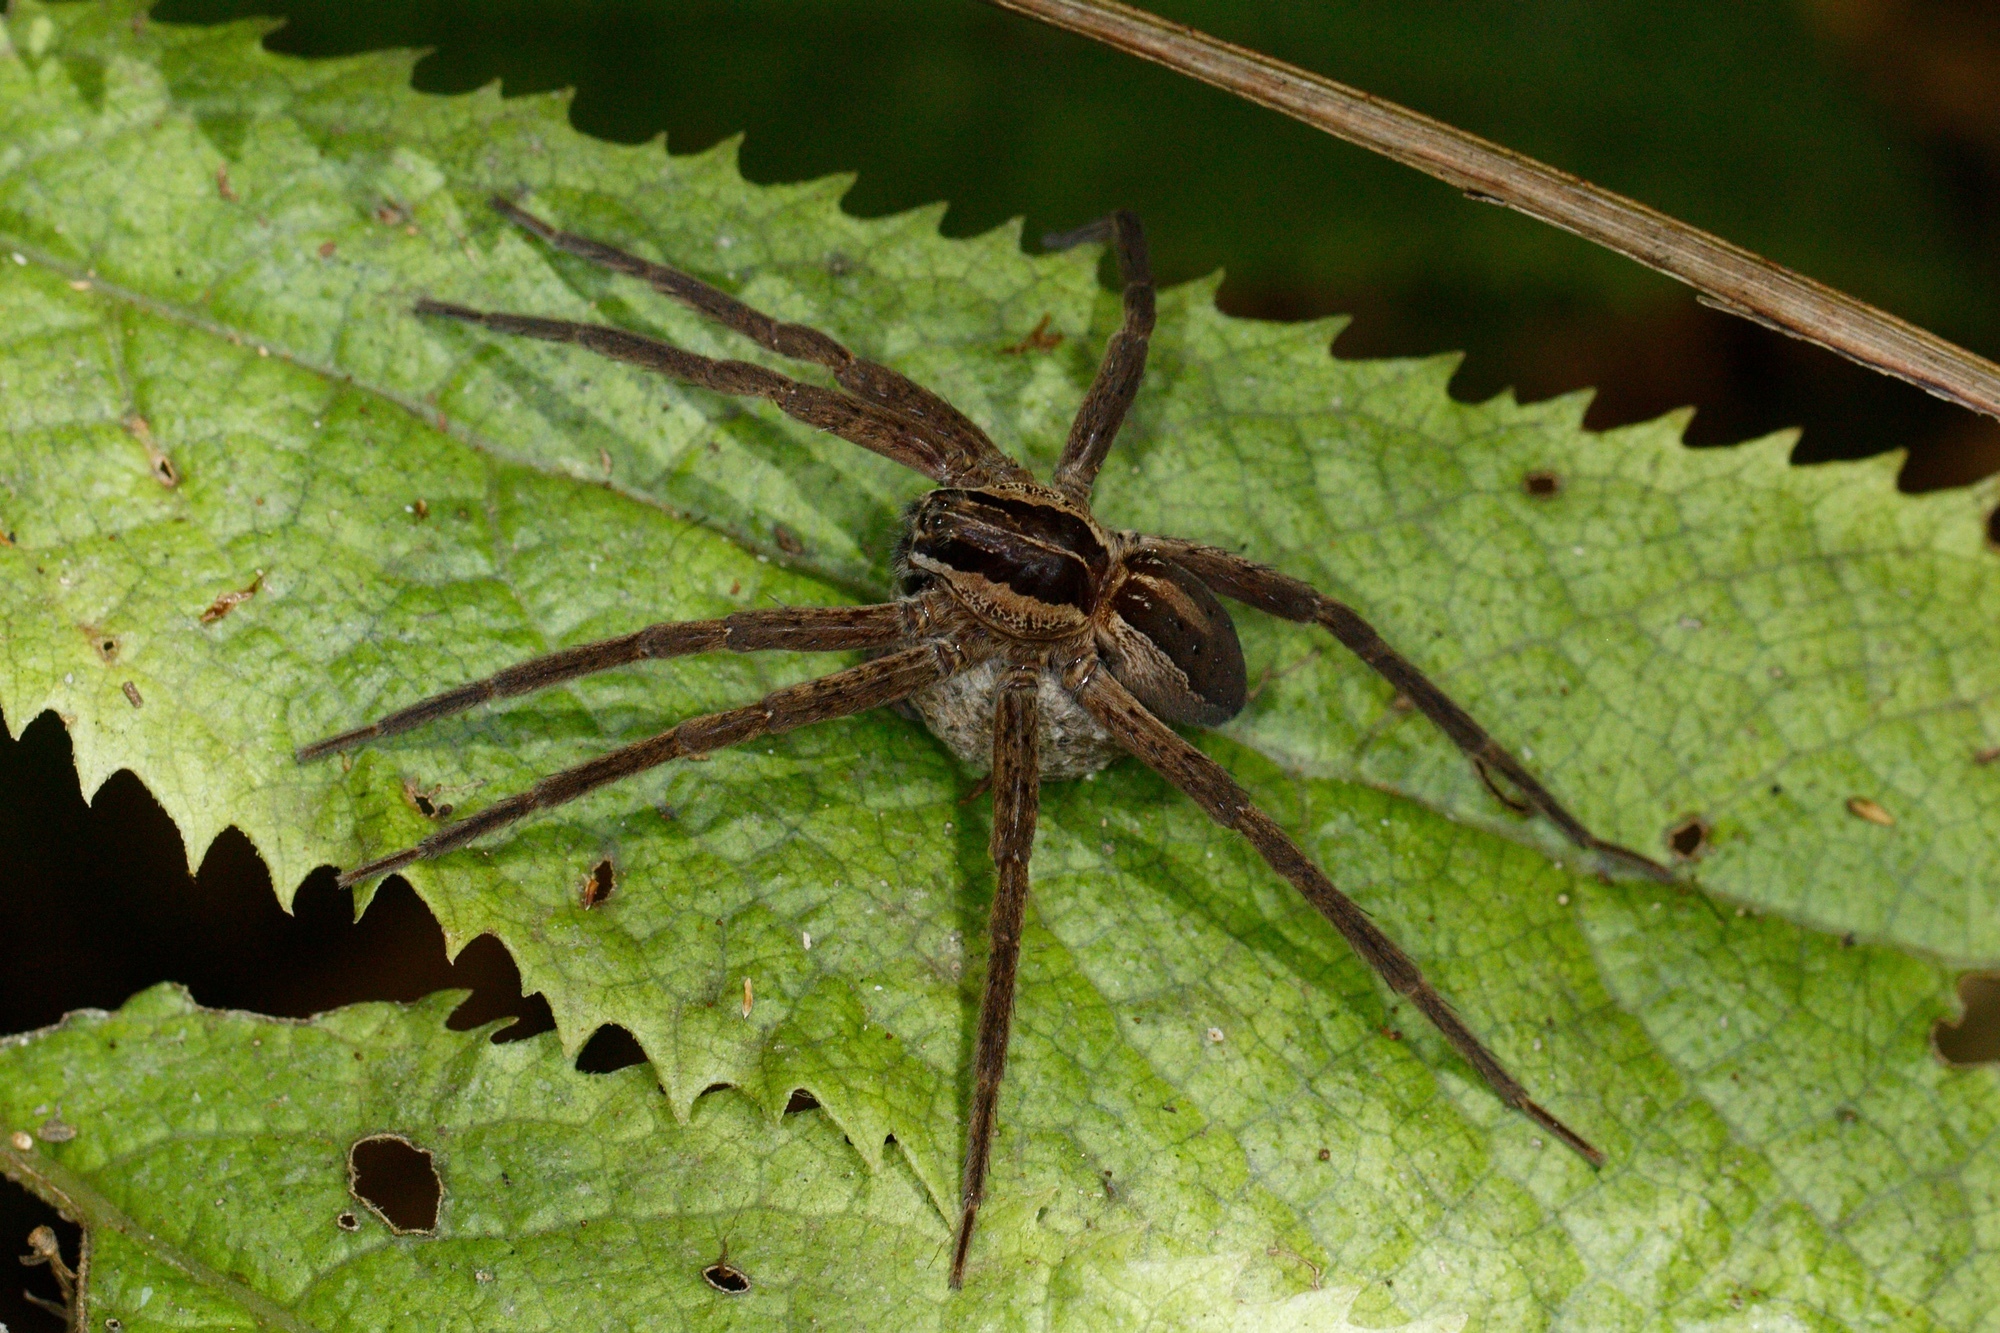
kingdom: Animalia
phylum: Arthropoda
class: Arachnida
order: Araneae
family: Pisauridae
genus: Dolomedes
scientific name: Dolomedes minor
